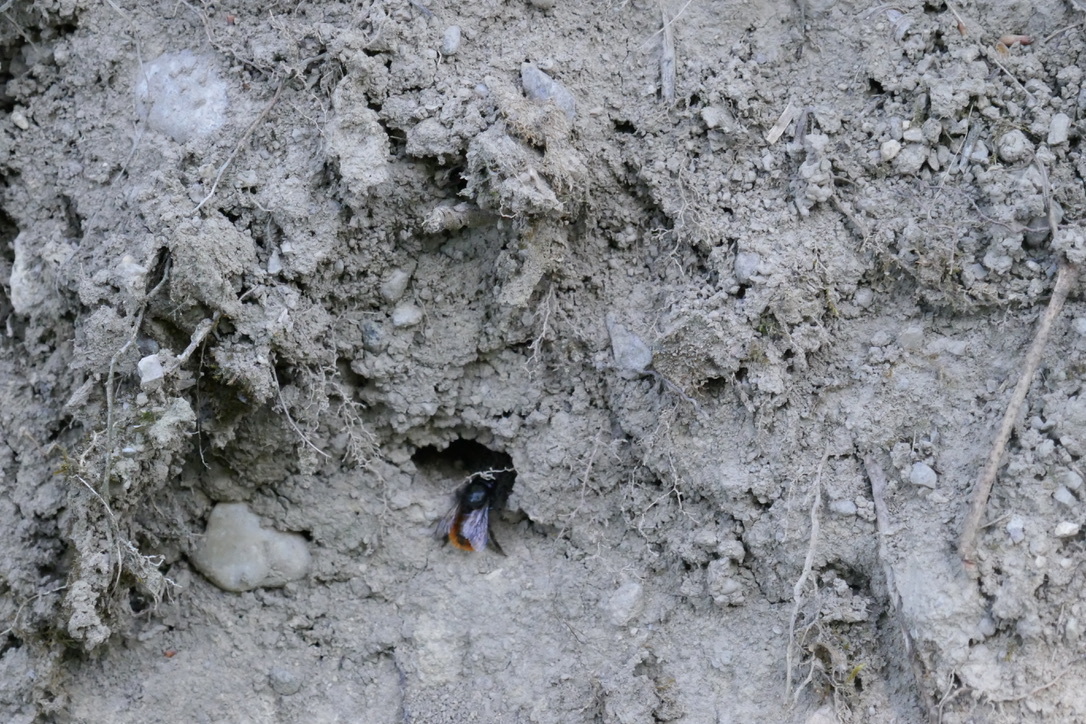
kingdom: Animalia
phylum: Arthropoda
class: Insecta
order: Hymenoptera
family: Megachilidae
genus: Osmia
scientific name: Osmia cornuta
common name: Mason bee
